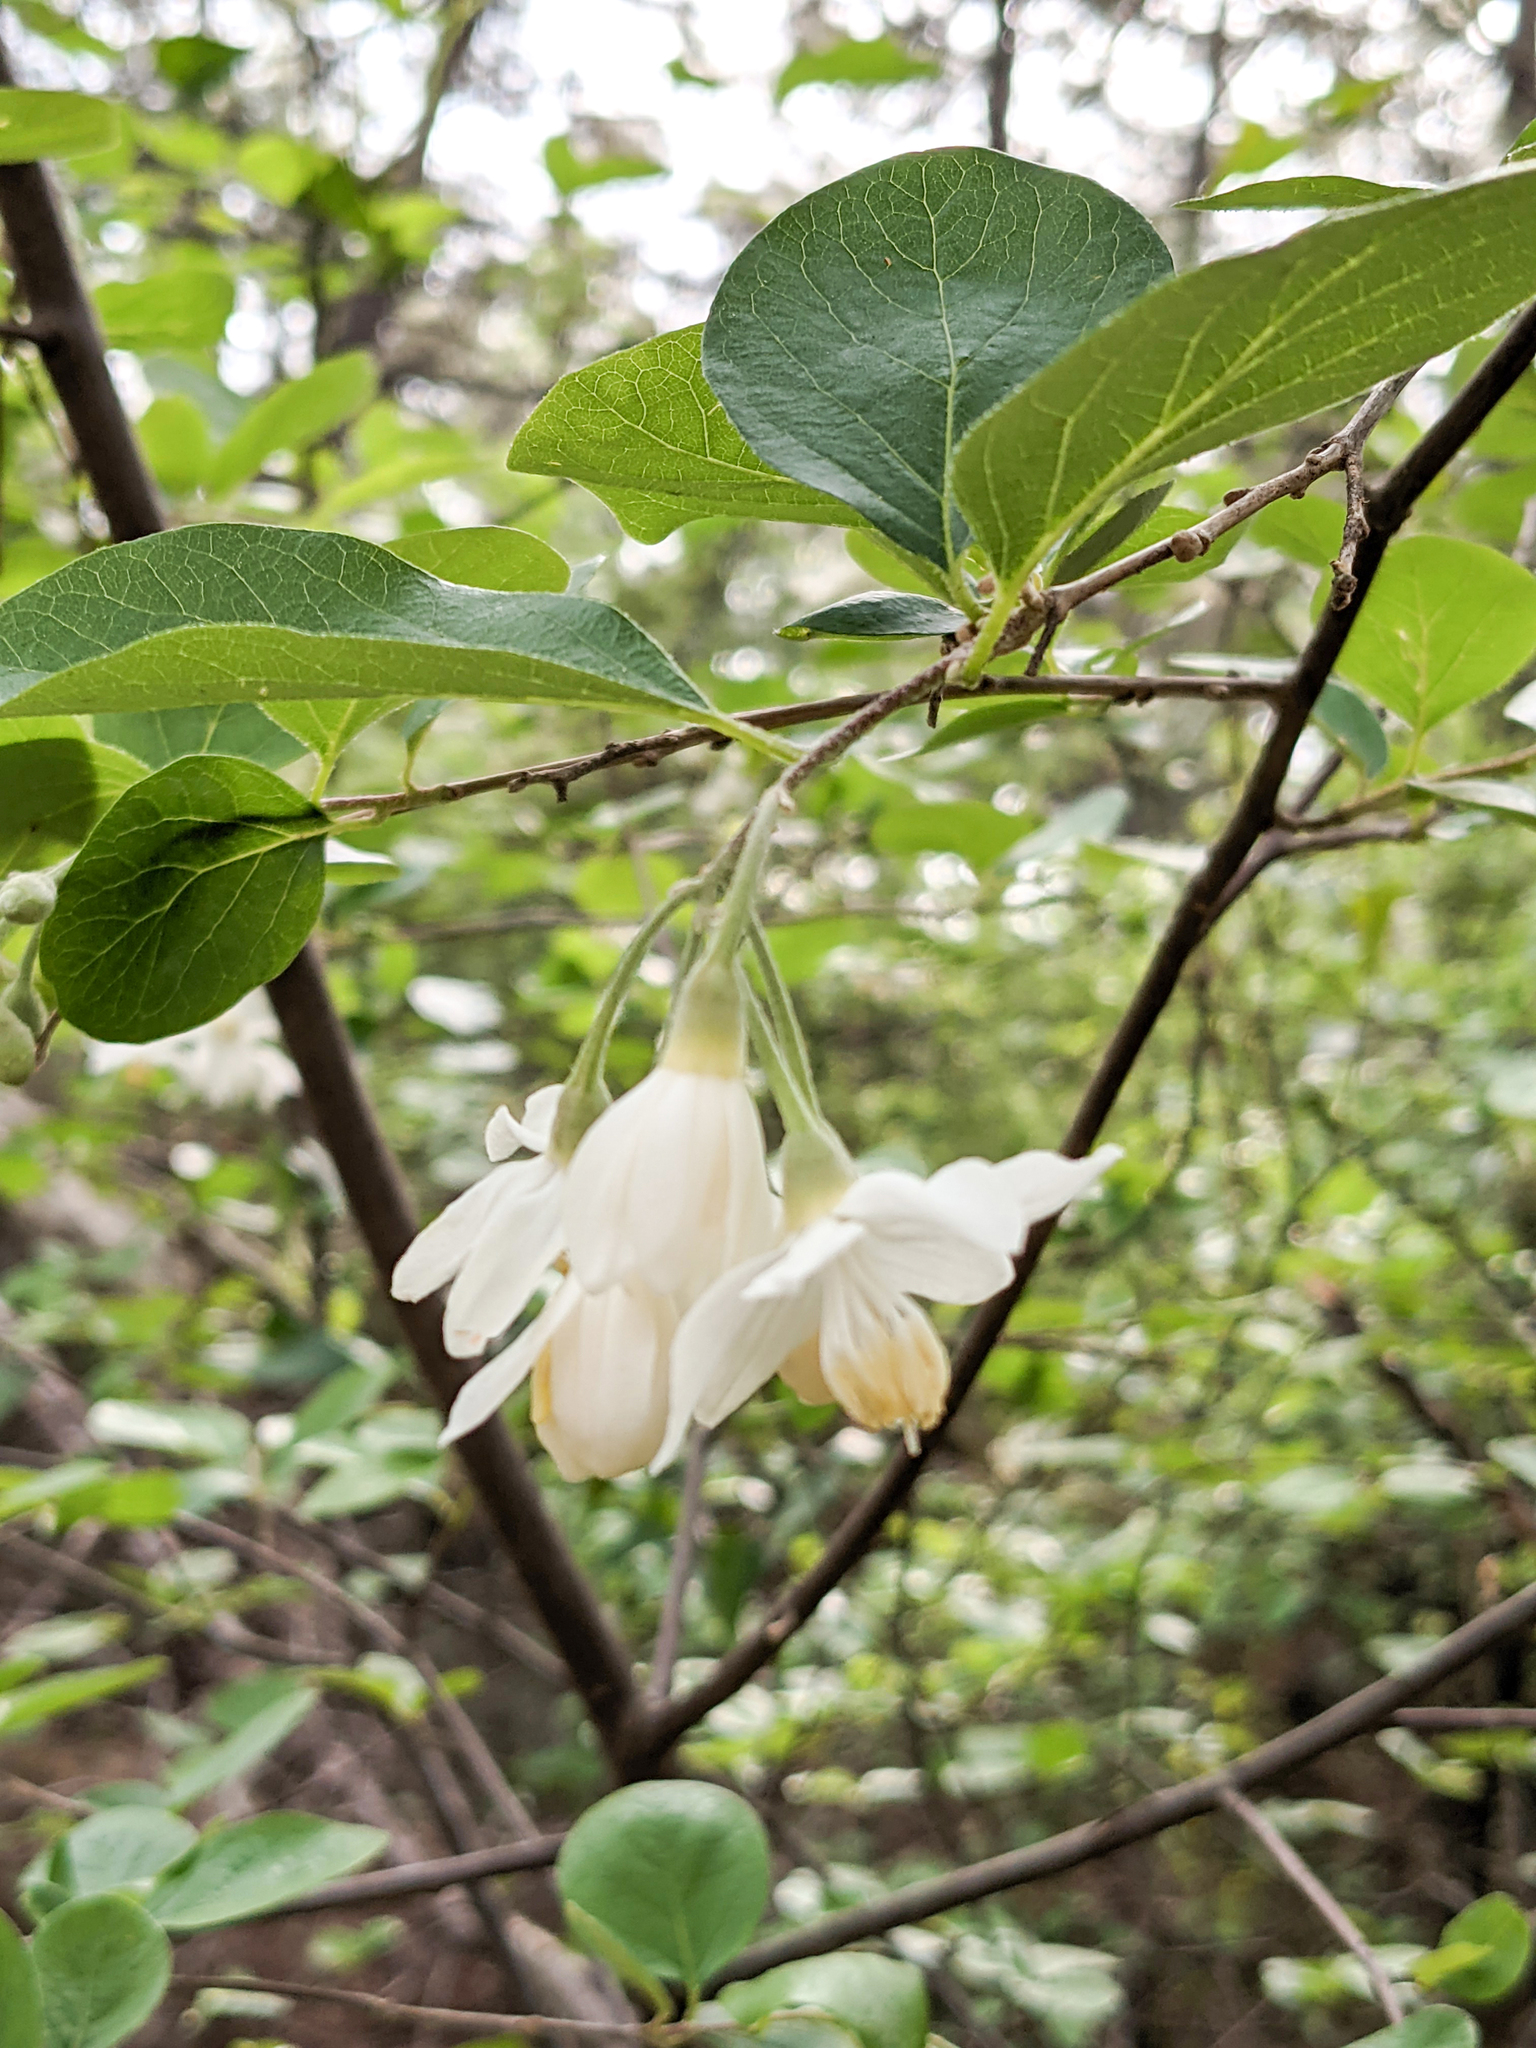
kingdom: Plantae
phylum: Tracheophyta
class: Magnoliopsida
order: Ericales
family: Styracaceae
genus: Styrax
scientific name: Styrax officinalis
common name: Storax
